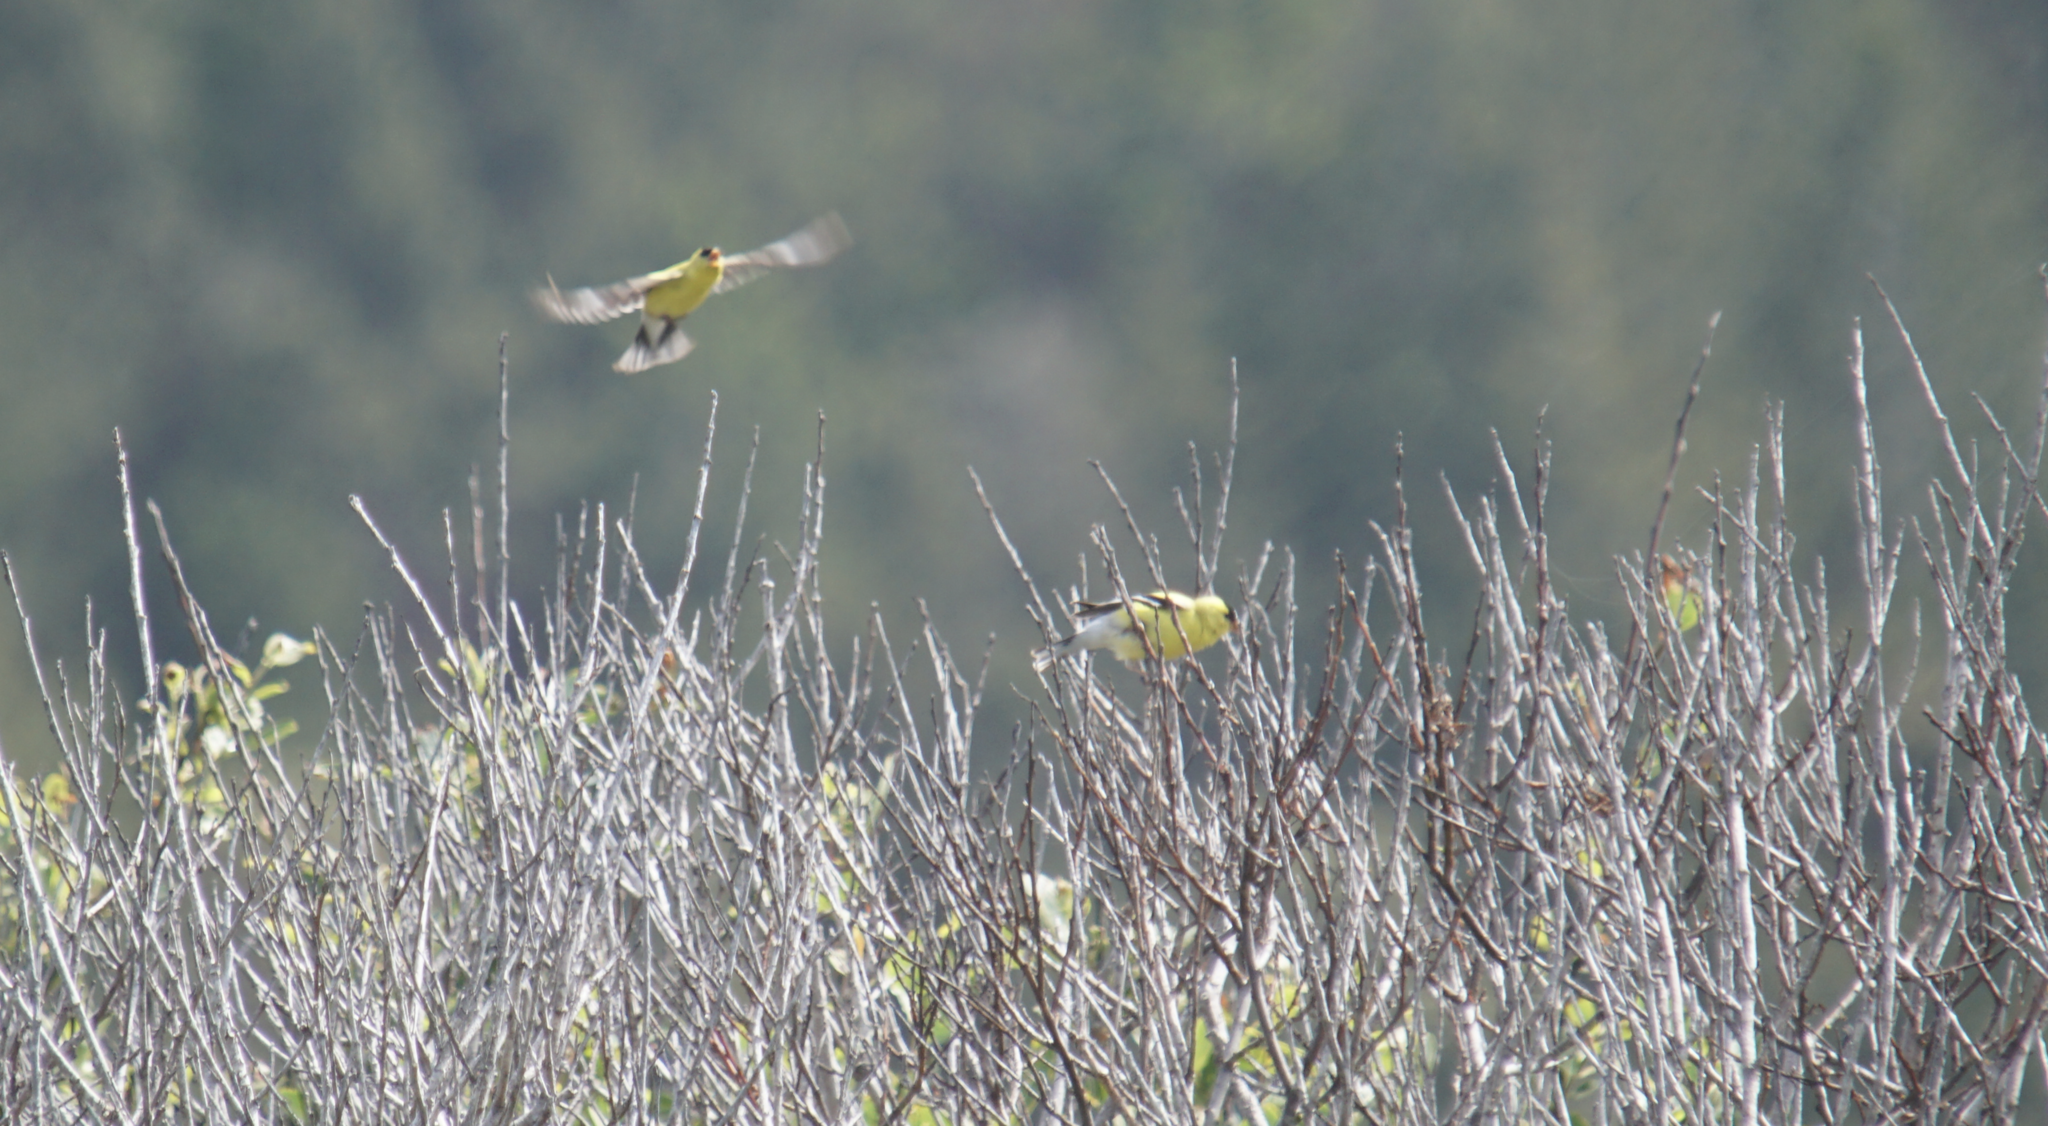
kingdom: Animalia
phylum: Chordata
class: Aves
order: Passeriformes
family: Fringillidae
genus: Spinus
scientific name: Spinus tristis
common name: American goldfinch
